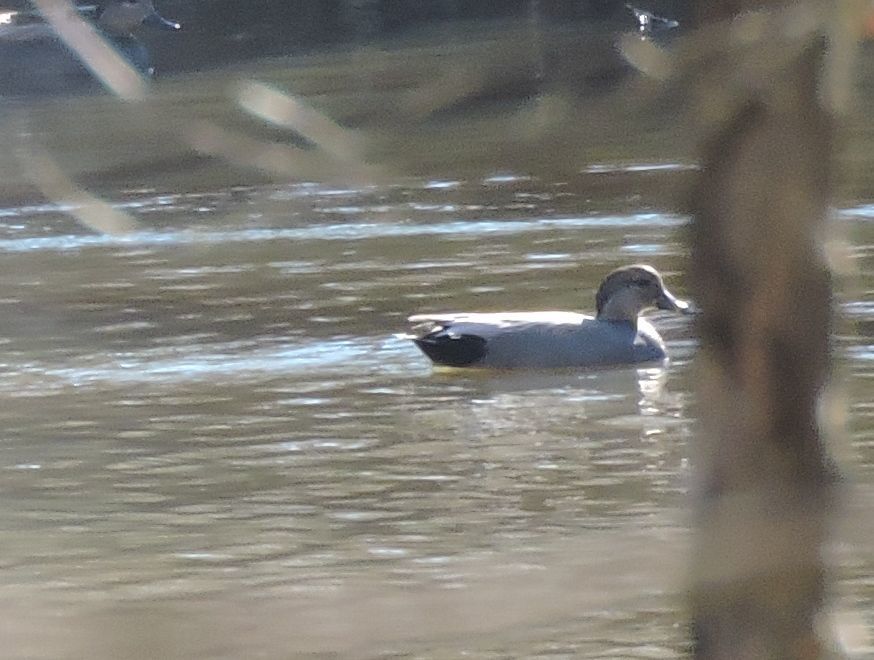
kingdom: Animalia
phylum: Chordata
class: Aves
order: Anseriformes
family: Anatidae
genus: Mareca
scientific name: Mareca strepera
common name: Gadwall
